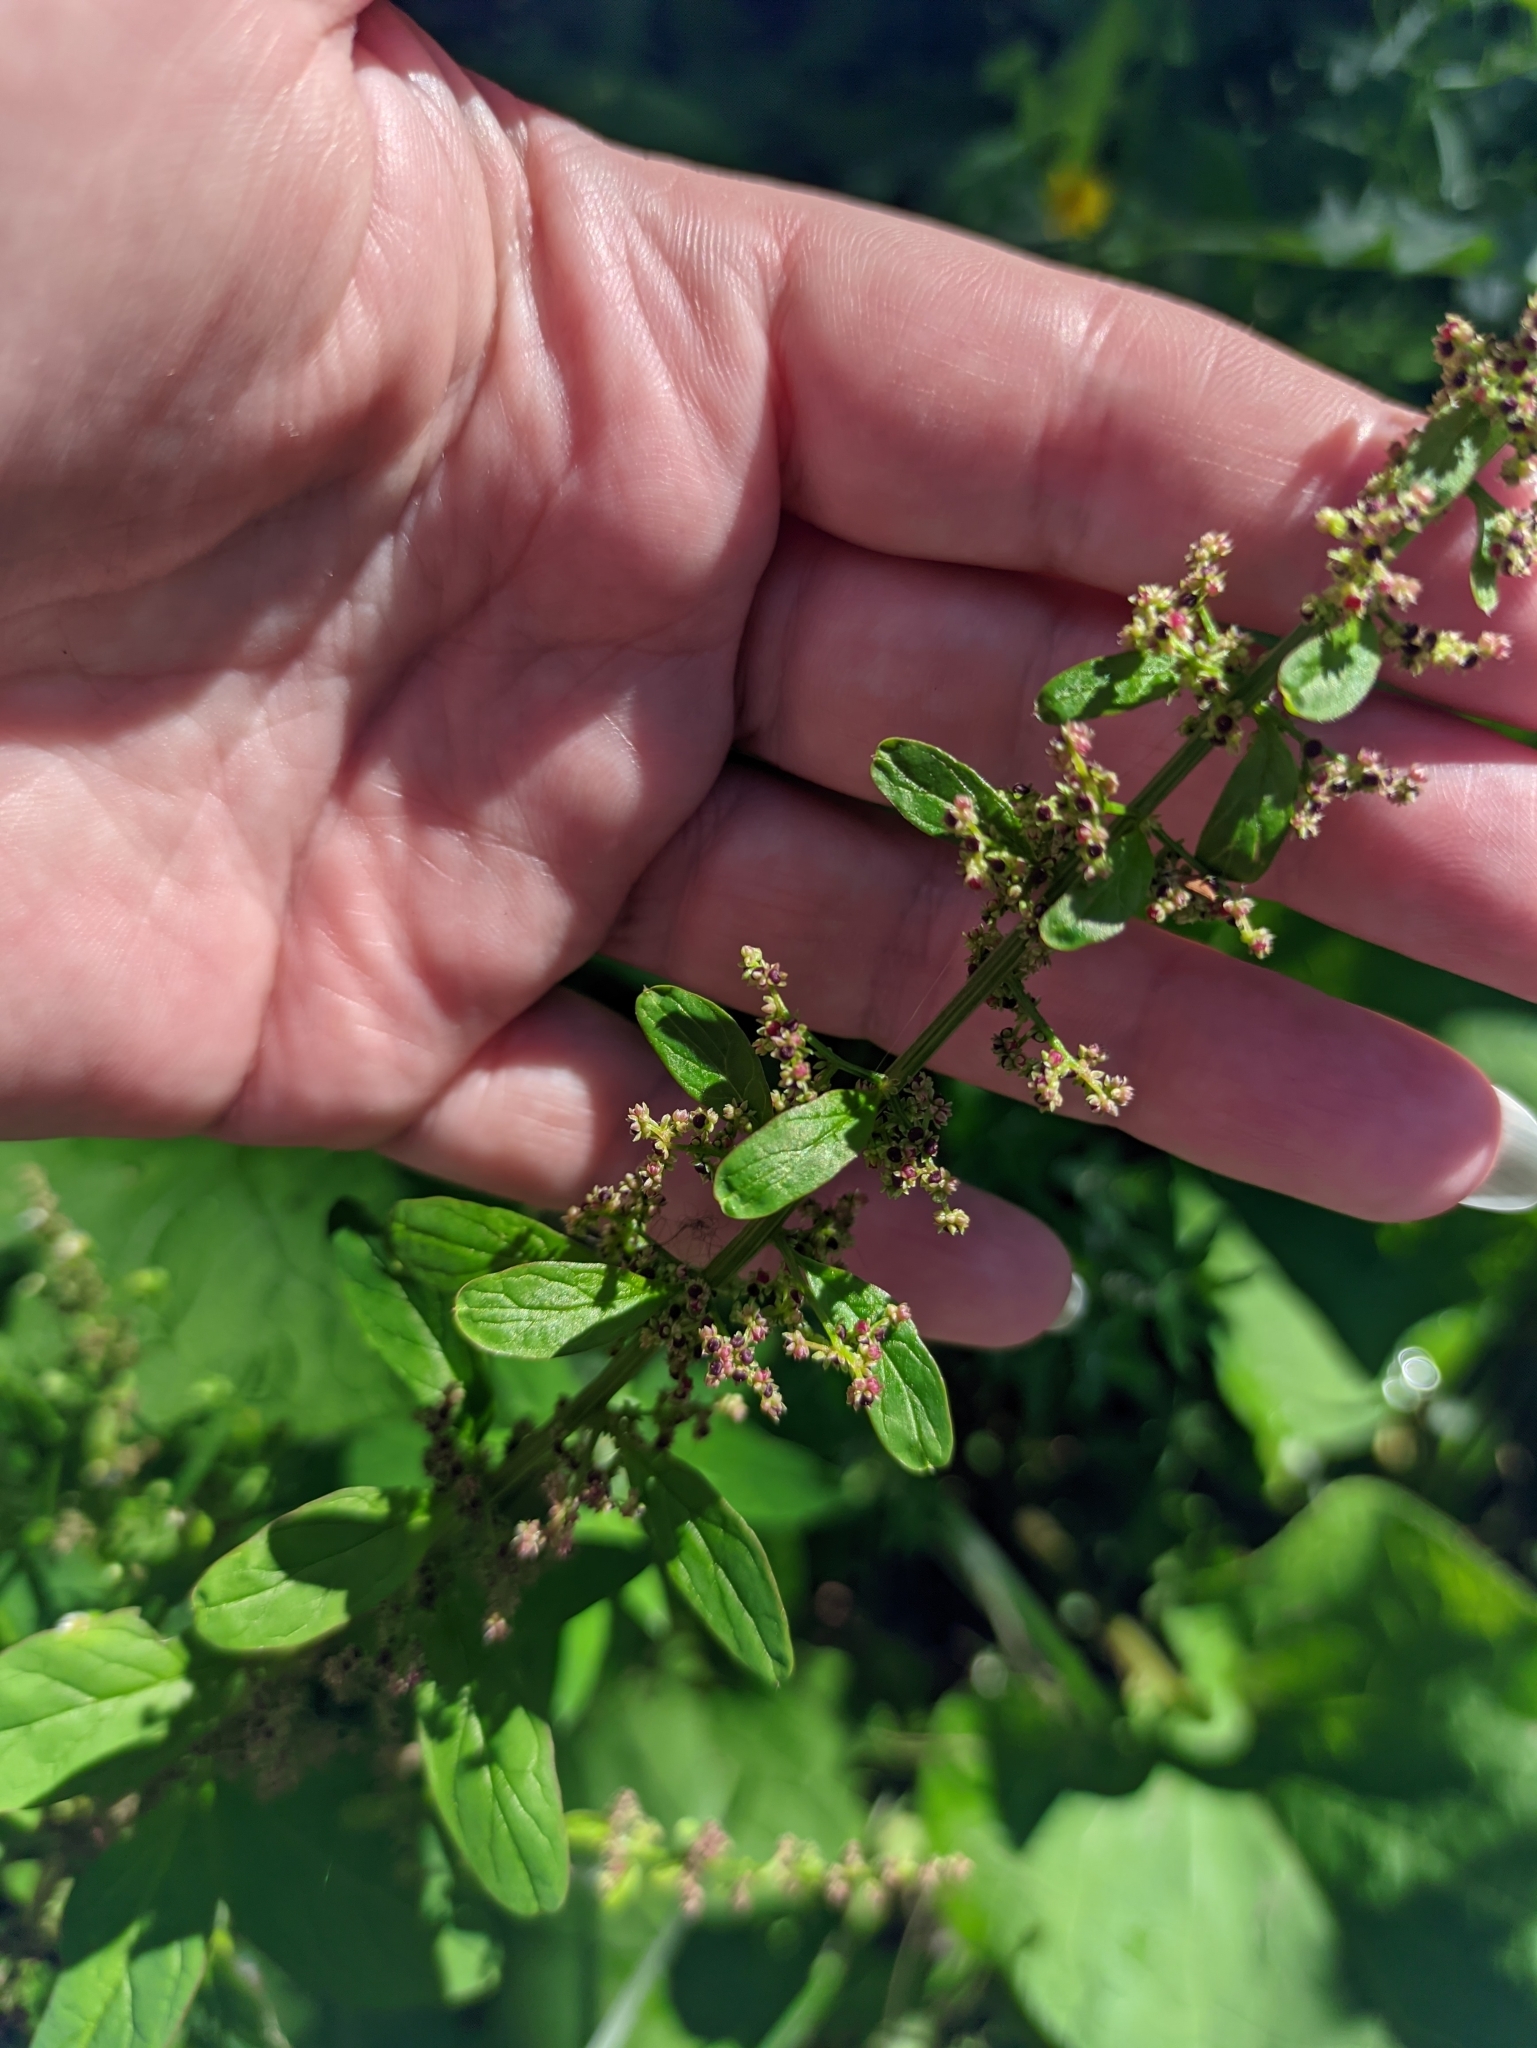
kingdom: Plantae
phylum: Tracheophyta
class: Magnoliopsida
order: Caryophyllales
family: Amaranthaceae
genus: Lipandra
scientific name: Lipandra polysperma
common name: Many-seed goosefoot
